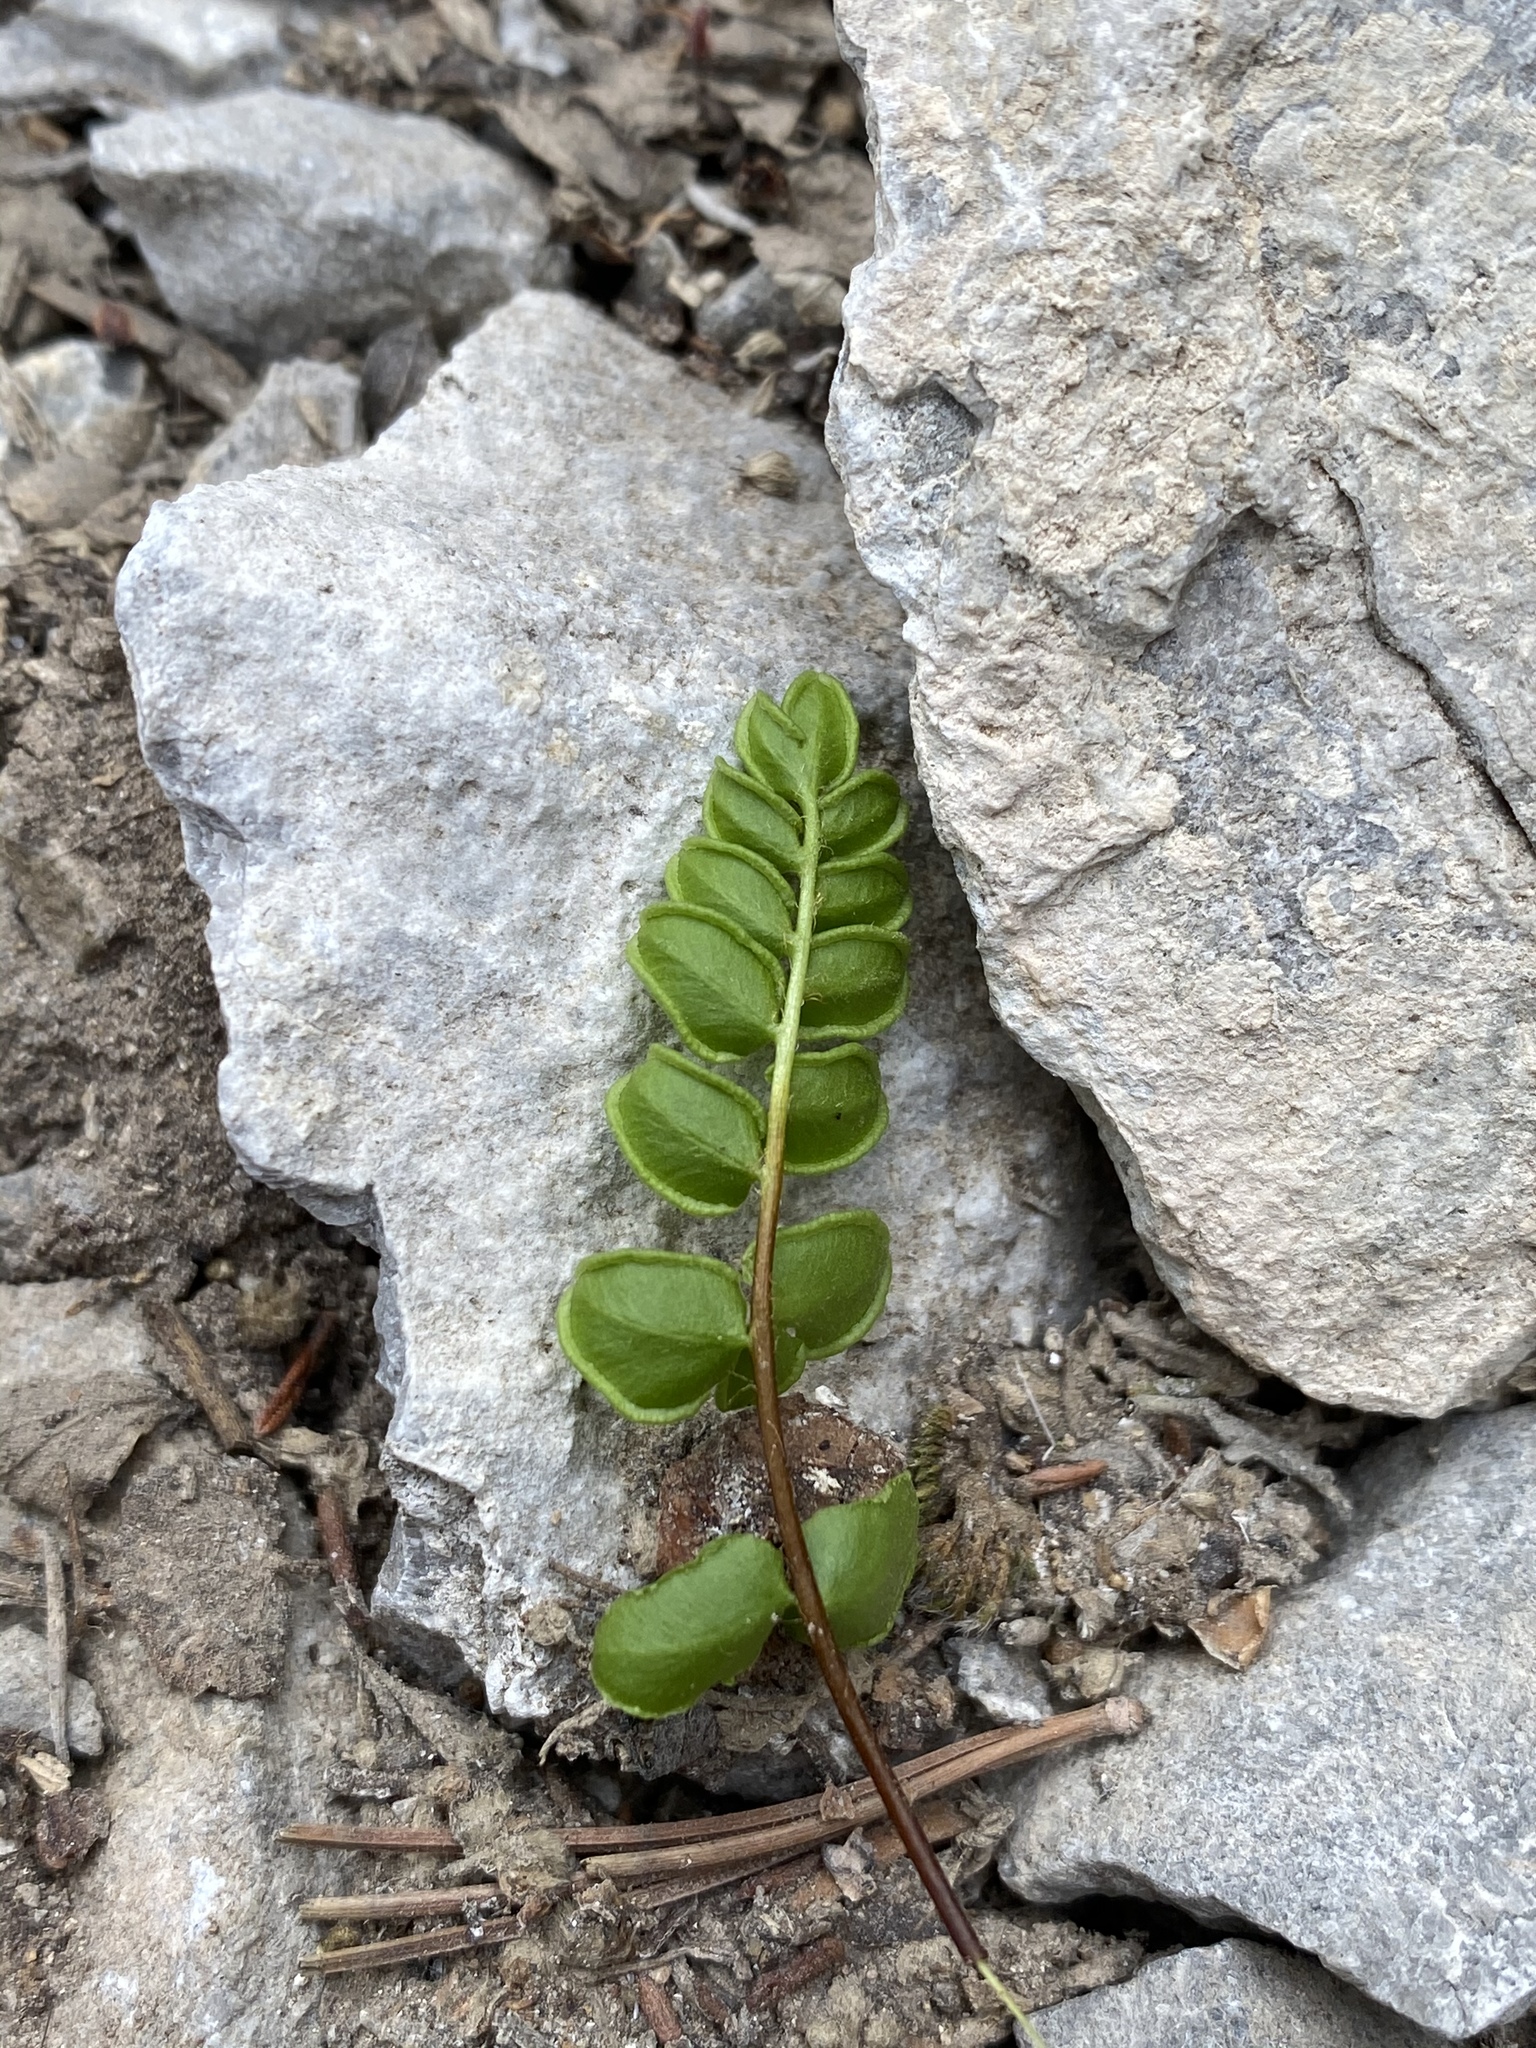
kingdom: Plantae
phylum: Tracheophyta
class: Polypodiopsida
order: Polypodiales
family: Pteridaceae
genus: Pellaea
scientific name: Pellaea breweri
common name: Brewer's cliffbrake
